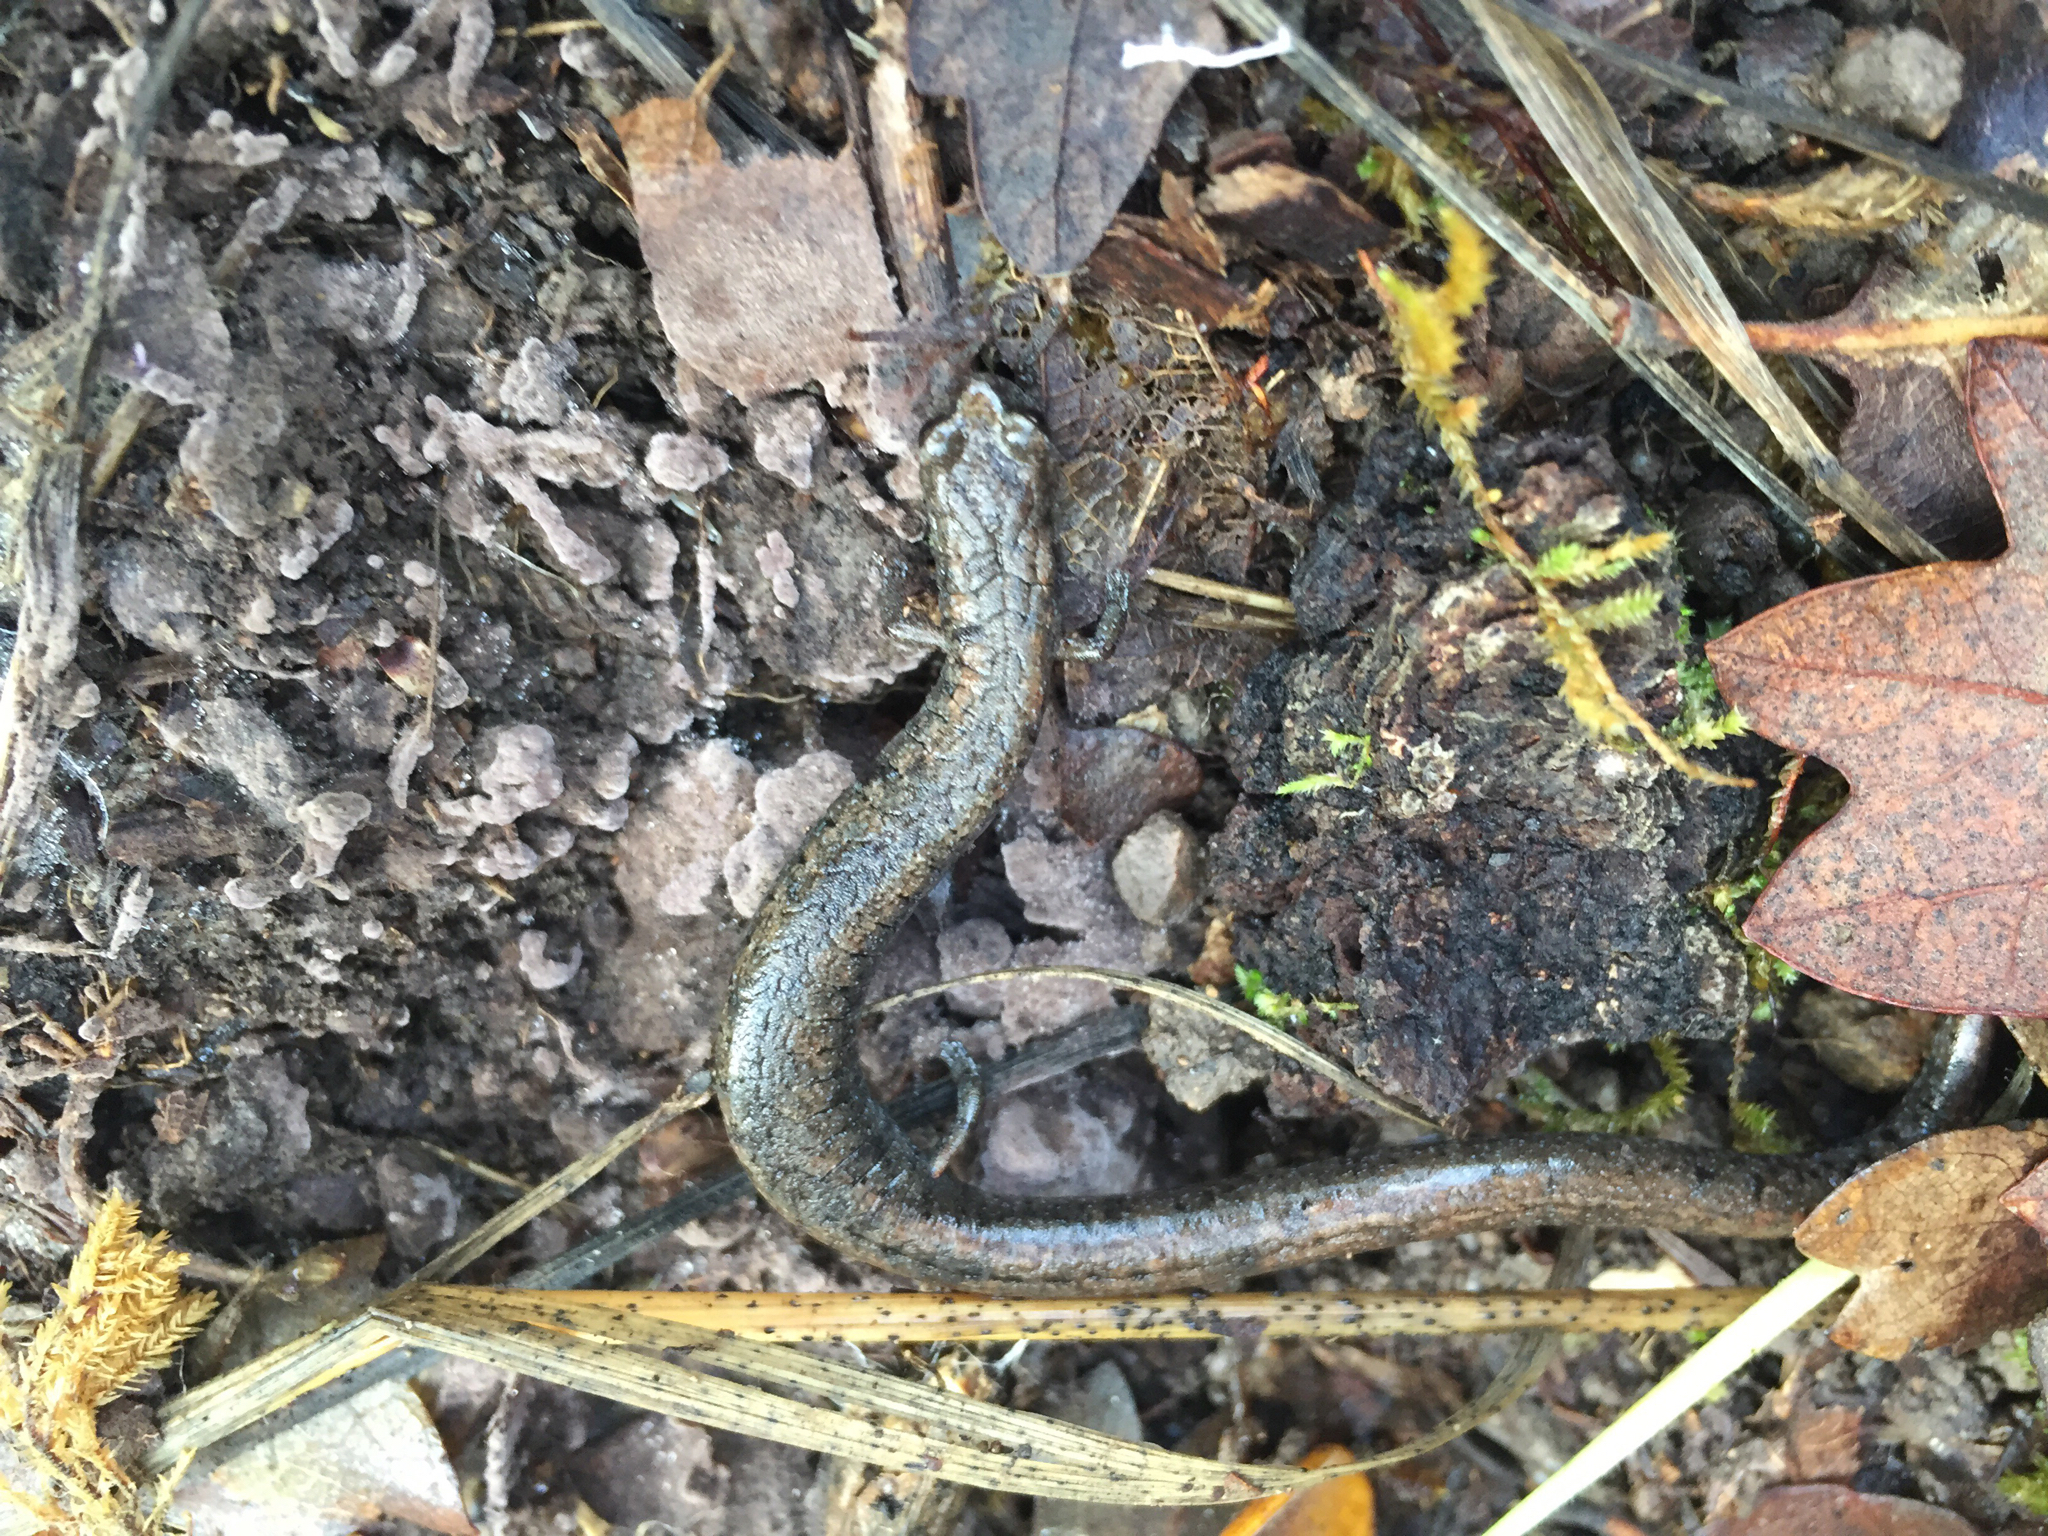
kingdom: Animalia
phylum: Chordata
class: Amphibia
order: Caudata
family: Plethodontidae
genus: Batrachoseps
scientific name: Batrachoseps attenuatus
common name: California slender salamander
